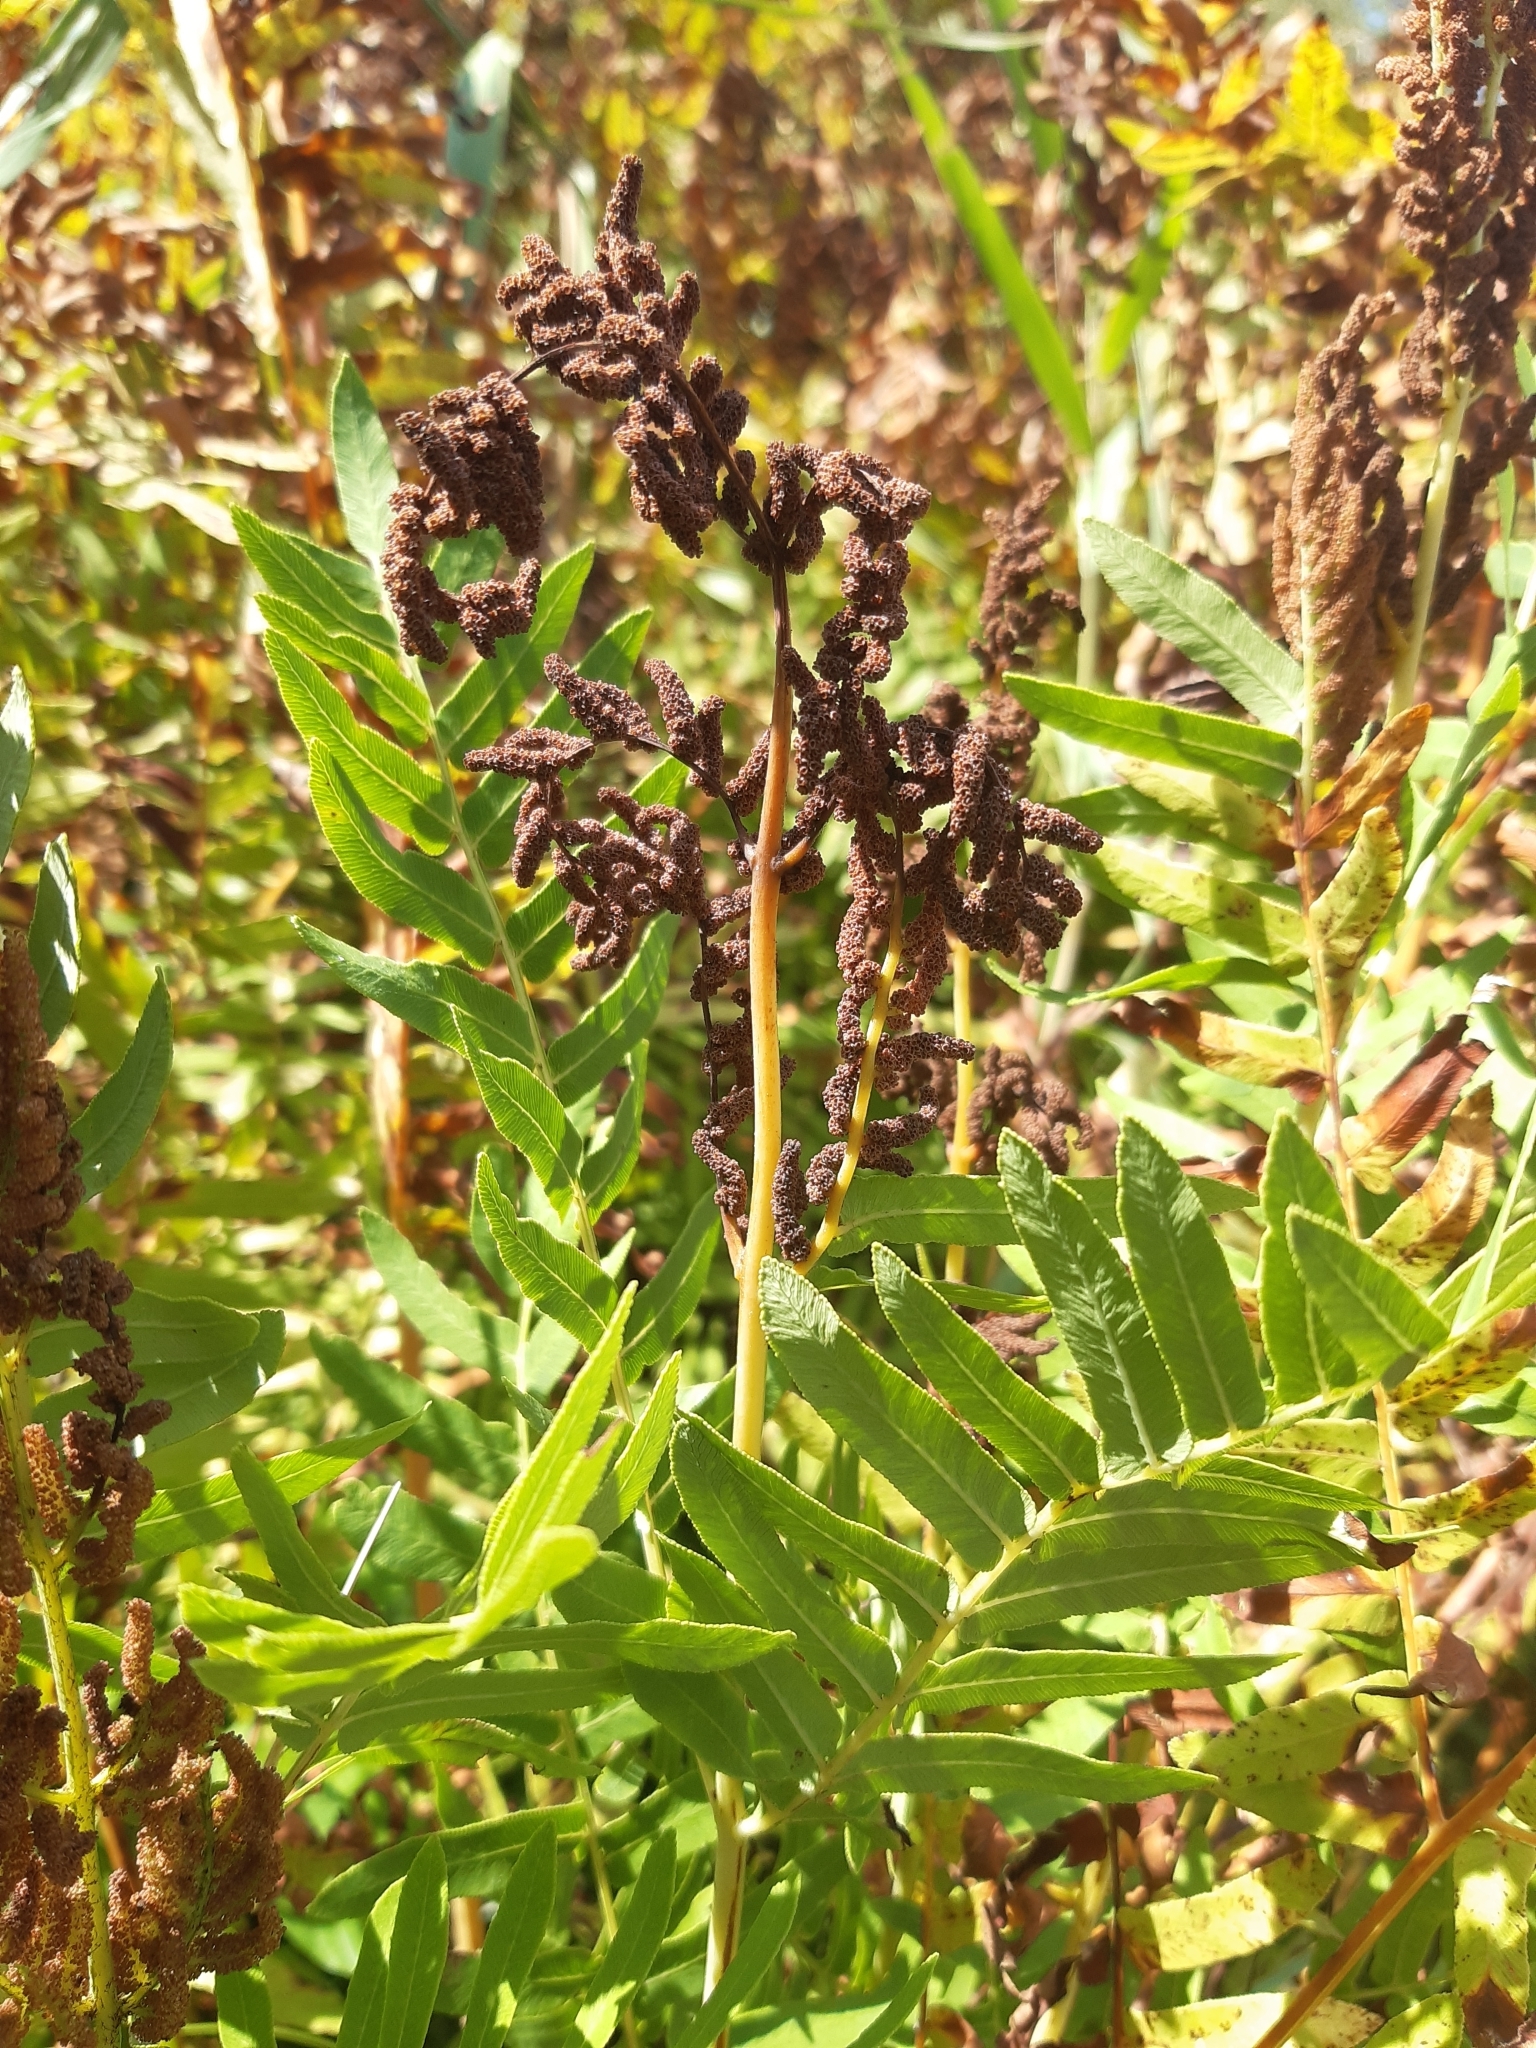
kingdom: Plantae
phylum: Tracheophyta
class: Polypodiopsida
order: Osmundales
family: Osmundaceae
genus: Osmunda
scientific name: Osmunda regalis
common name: Royal fern
